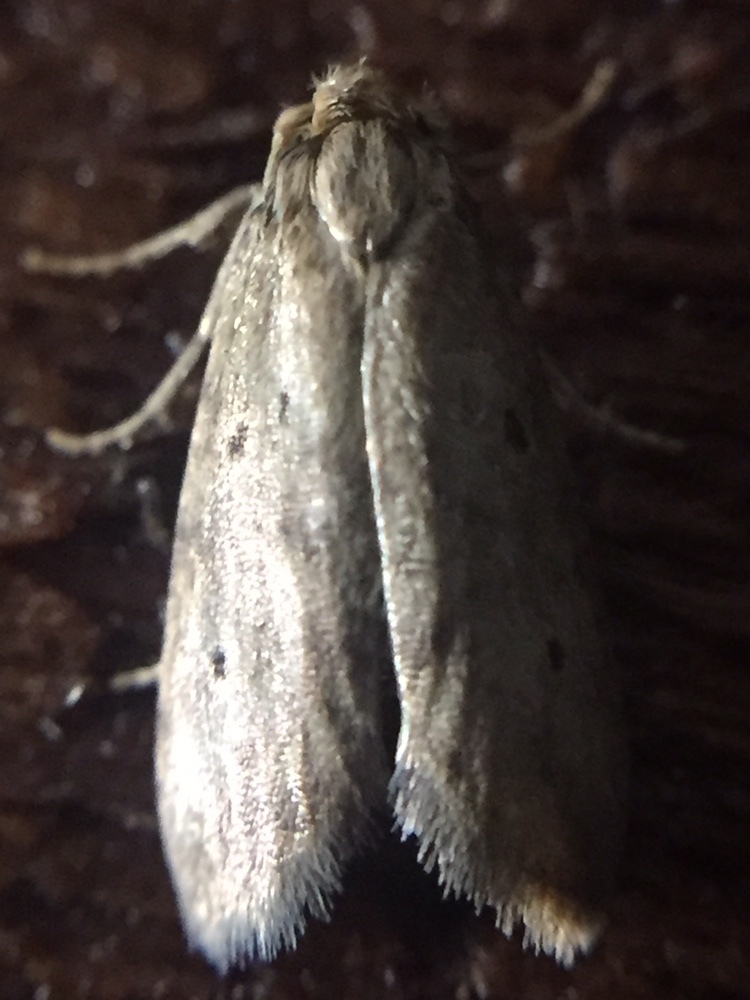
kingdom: Animalia
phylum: Arthropoda
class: Insecta
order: Lepidoptera
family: Galacticidae
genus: Tanaoctena
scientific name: Tanaoctena dubia
